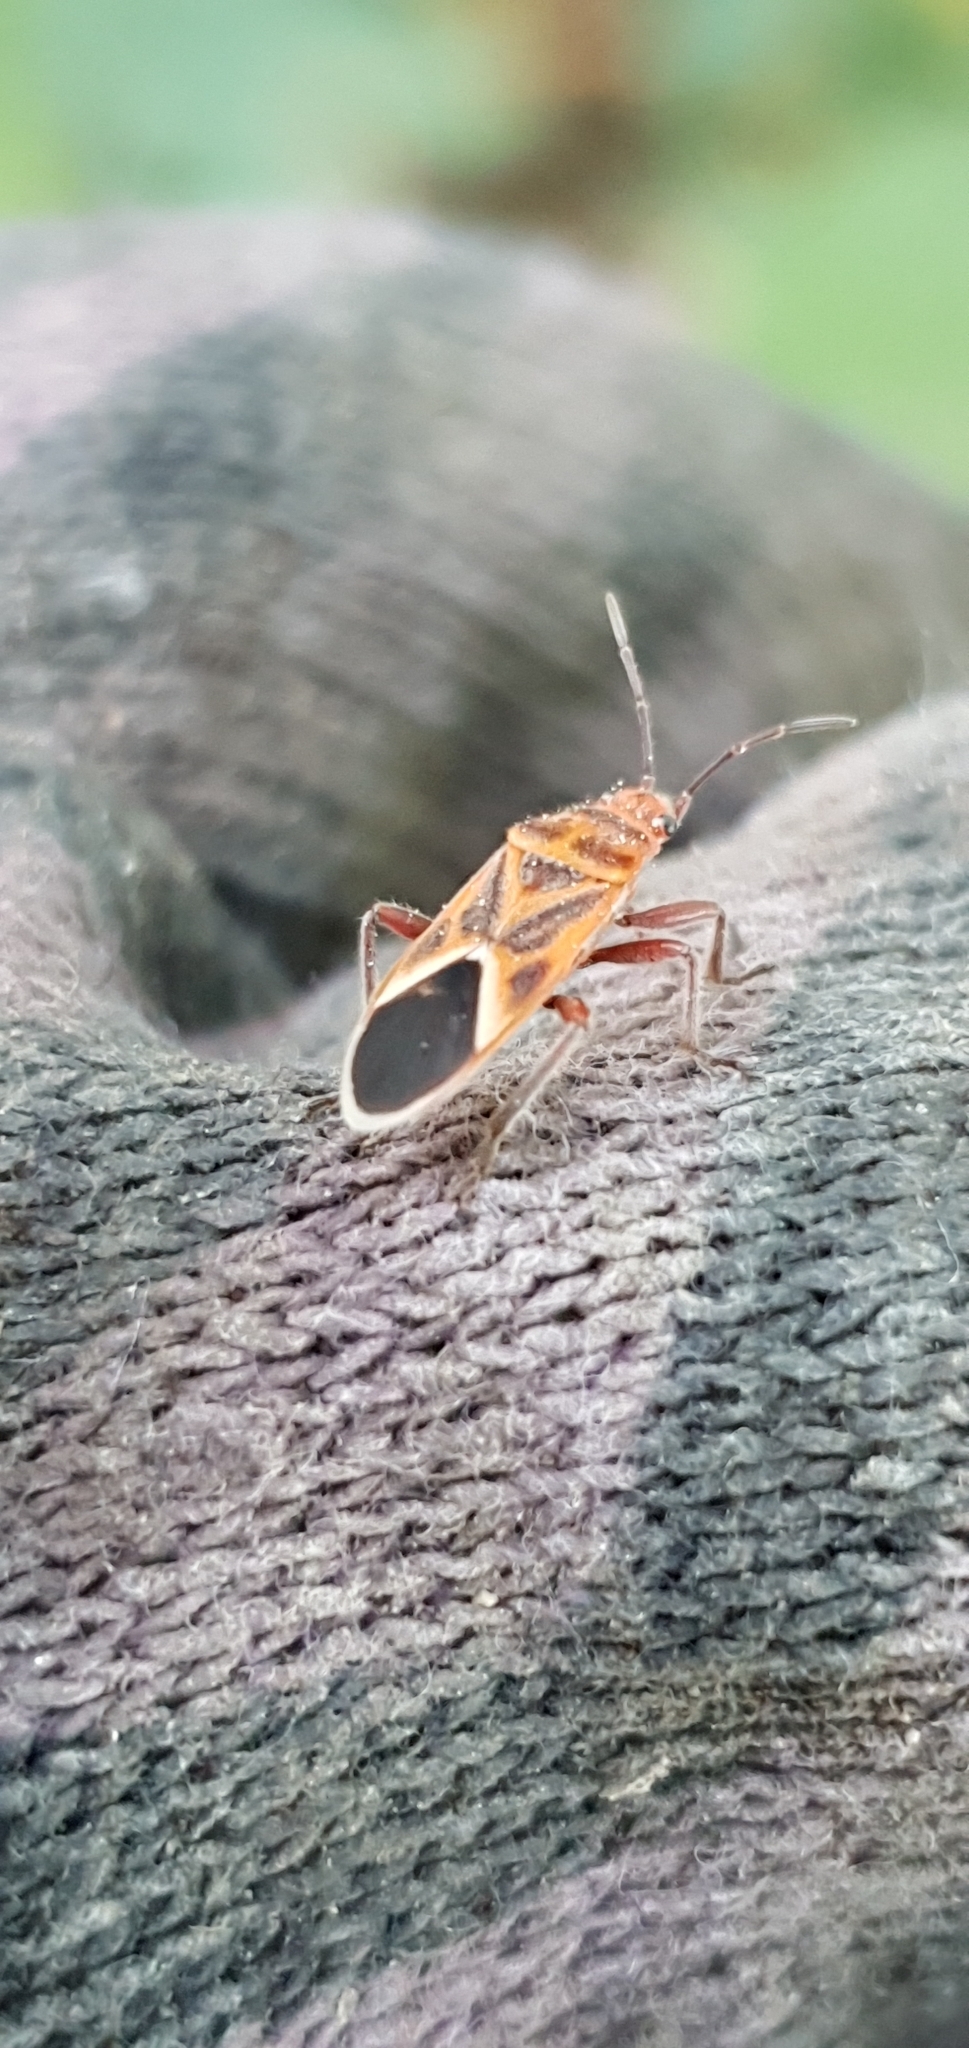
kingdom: Animalia
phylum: Arthropoda
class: Insecta
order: Hemiptera
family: Lygaeidae
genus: Graptostethus
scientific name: Graptostethus pubescens
